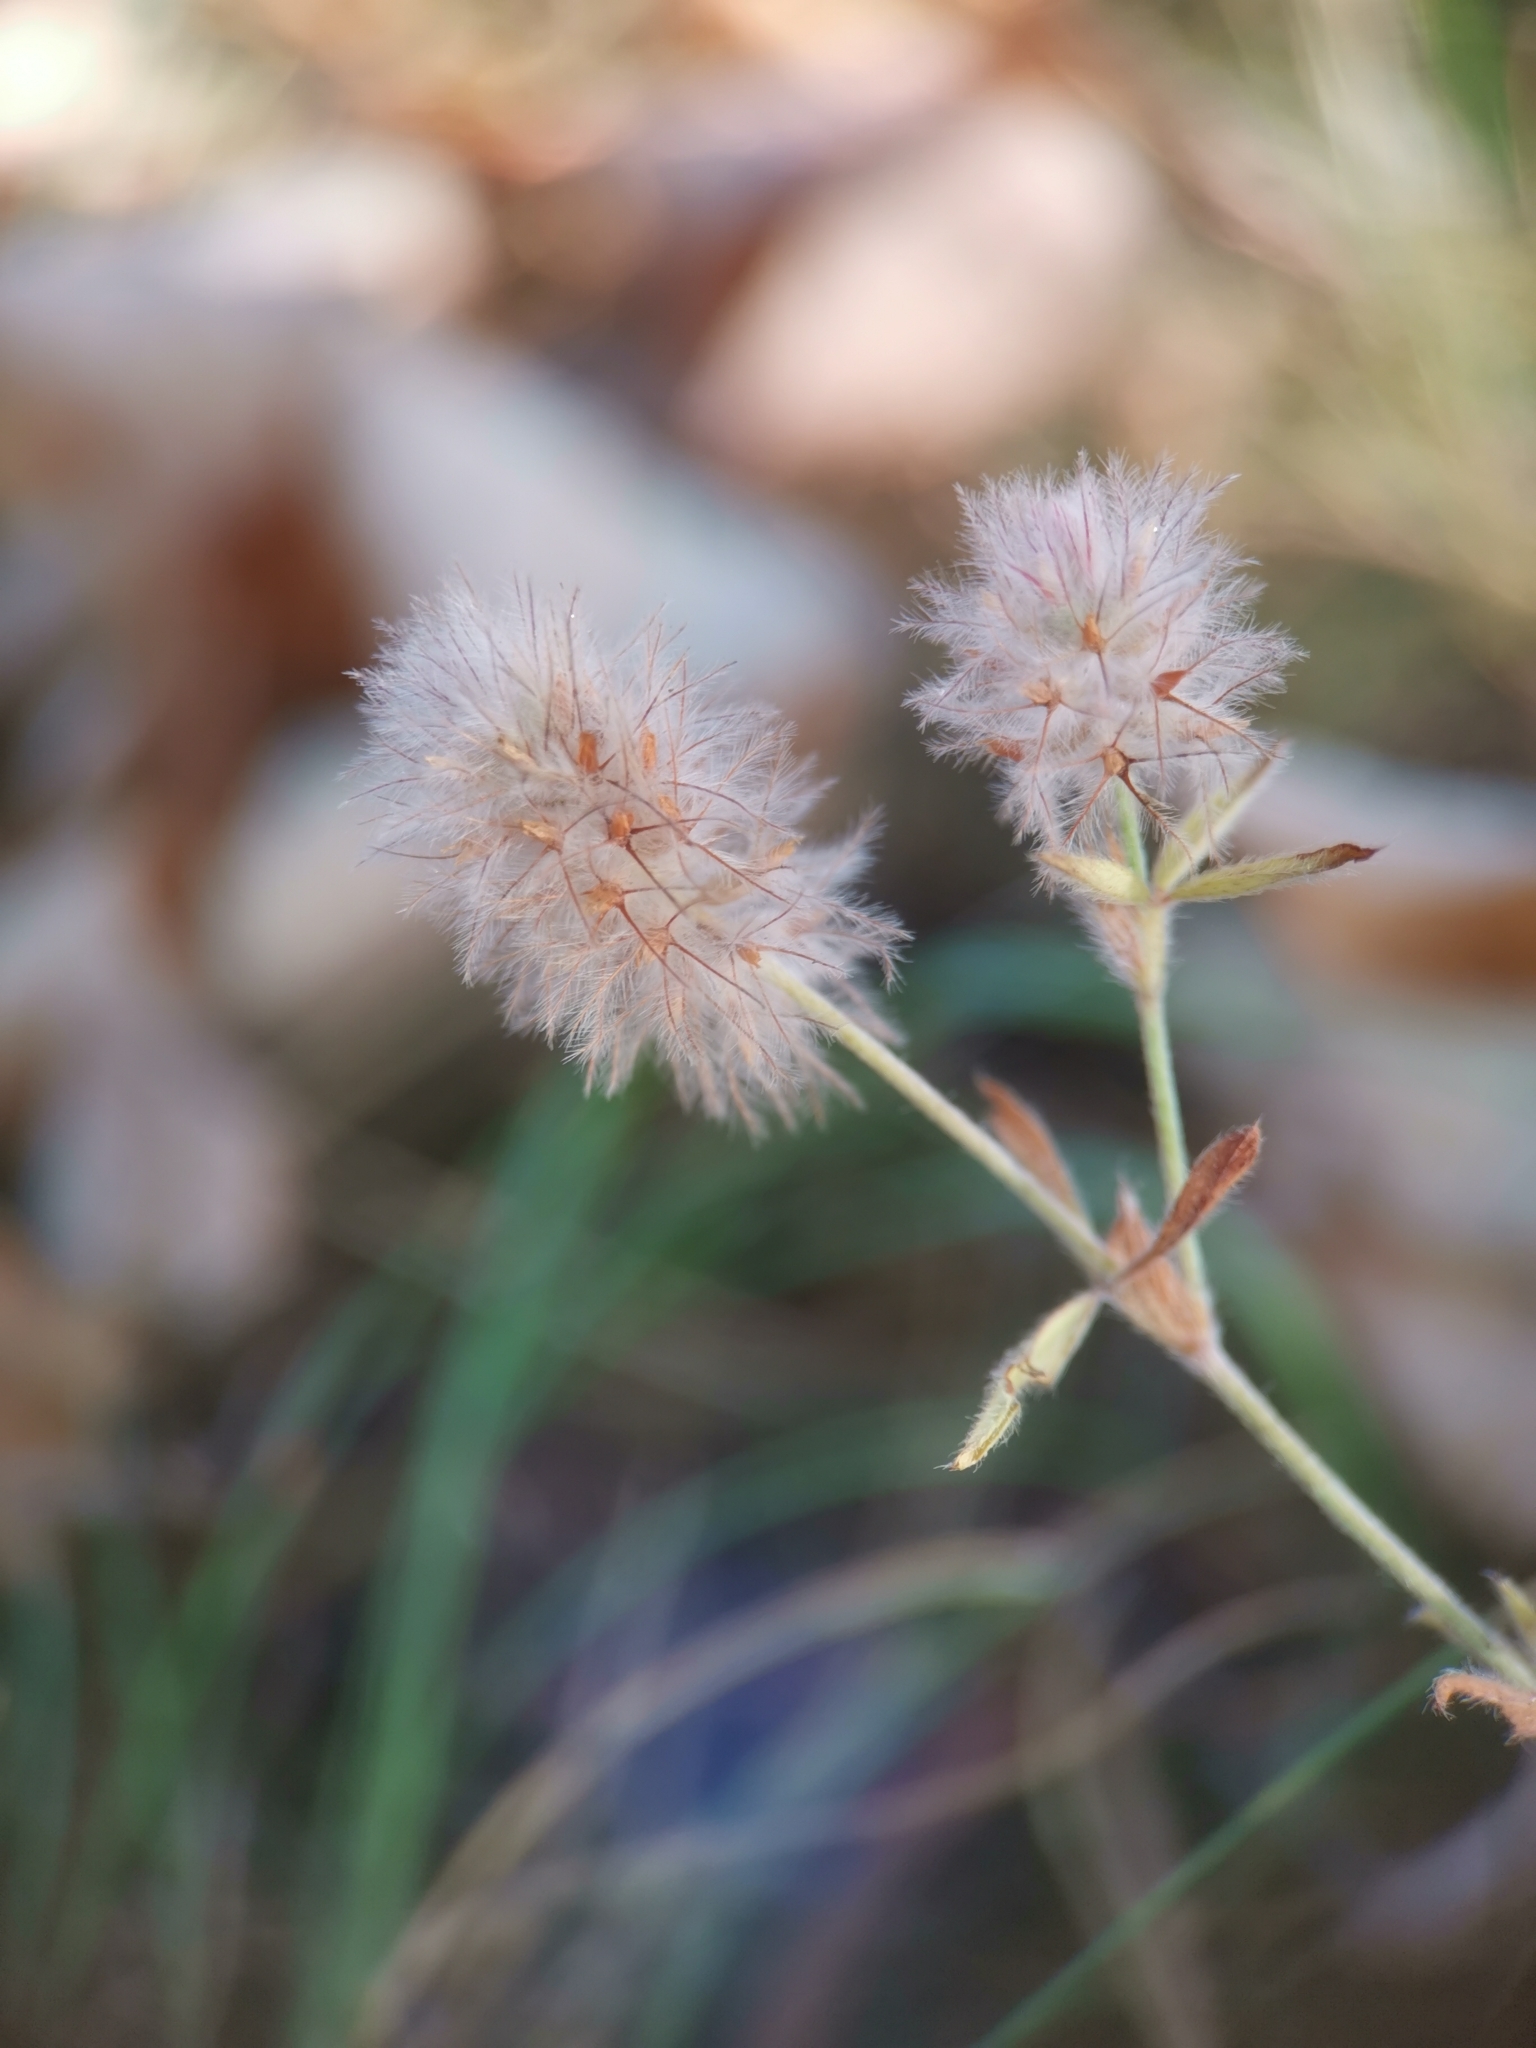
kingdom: Plantae
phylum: Tracheophyta
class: Magnoliopsida
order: Fabales
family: Fabaceae
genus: Trifolium
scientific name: Trifolium arvense
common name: Hare's-foot clover
